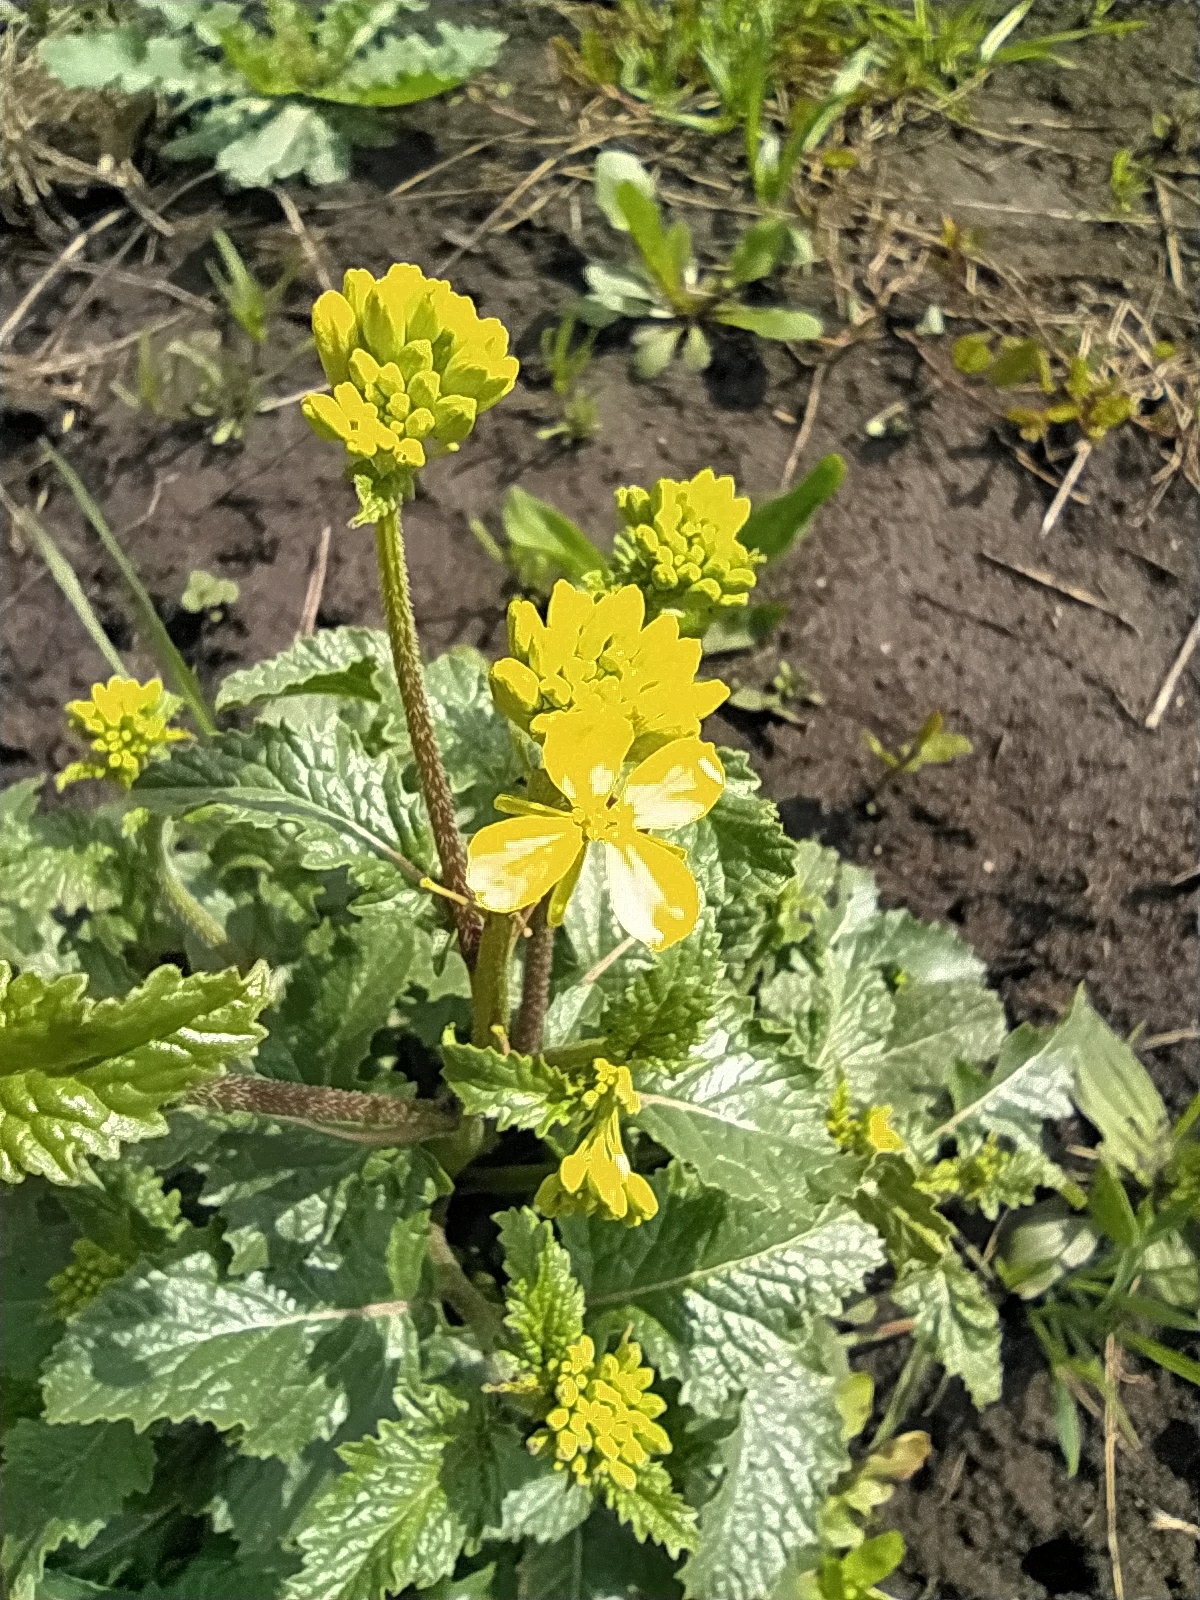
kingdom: Plantae
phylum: Tracheophyta
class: Magnoliopsida
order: Brassicales
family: Brassicaceae
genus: Sinapis
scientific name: Sinapis arvensis
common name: Charlock
